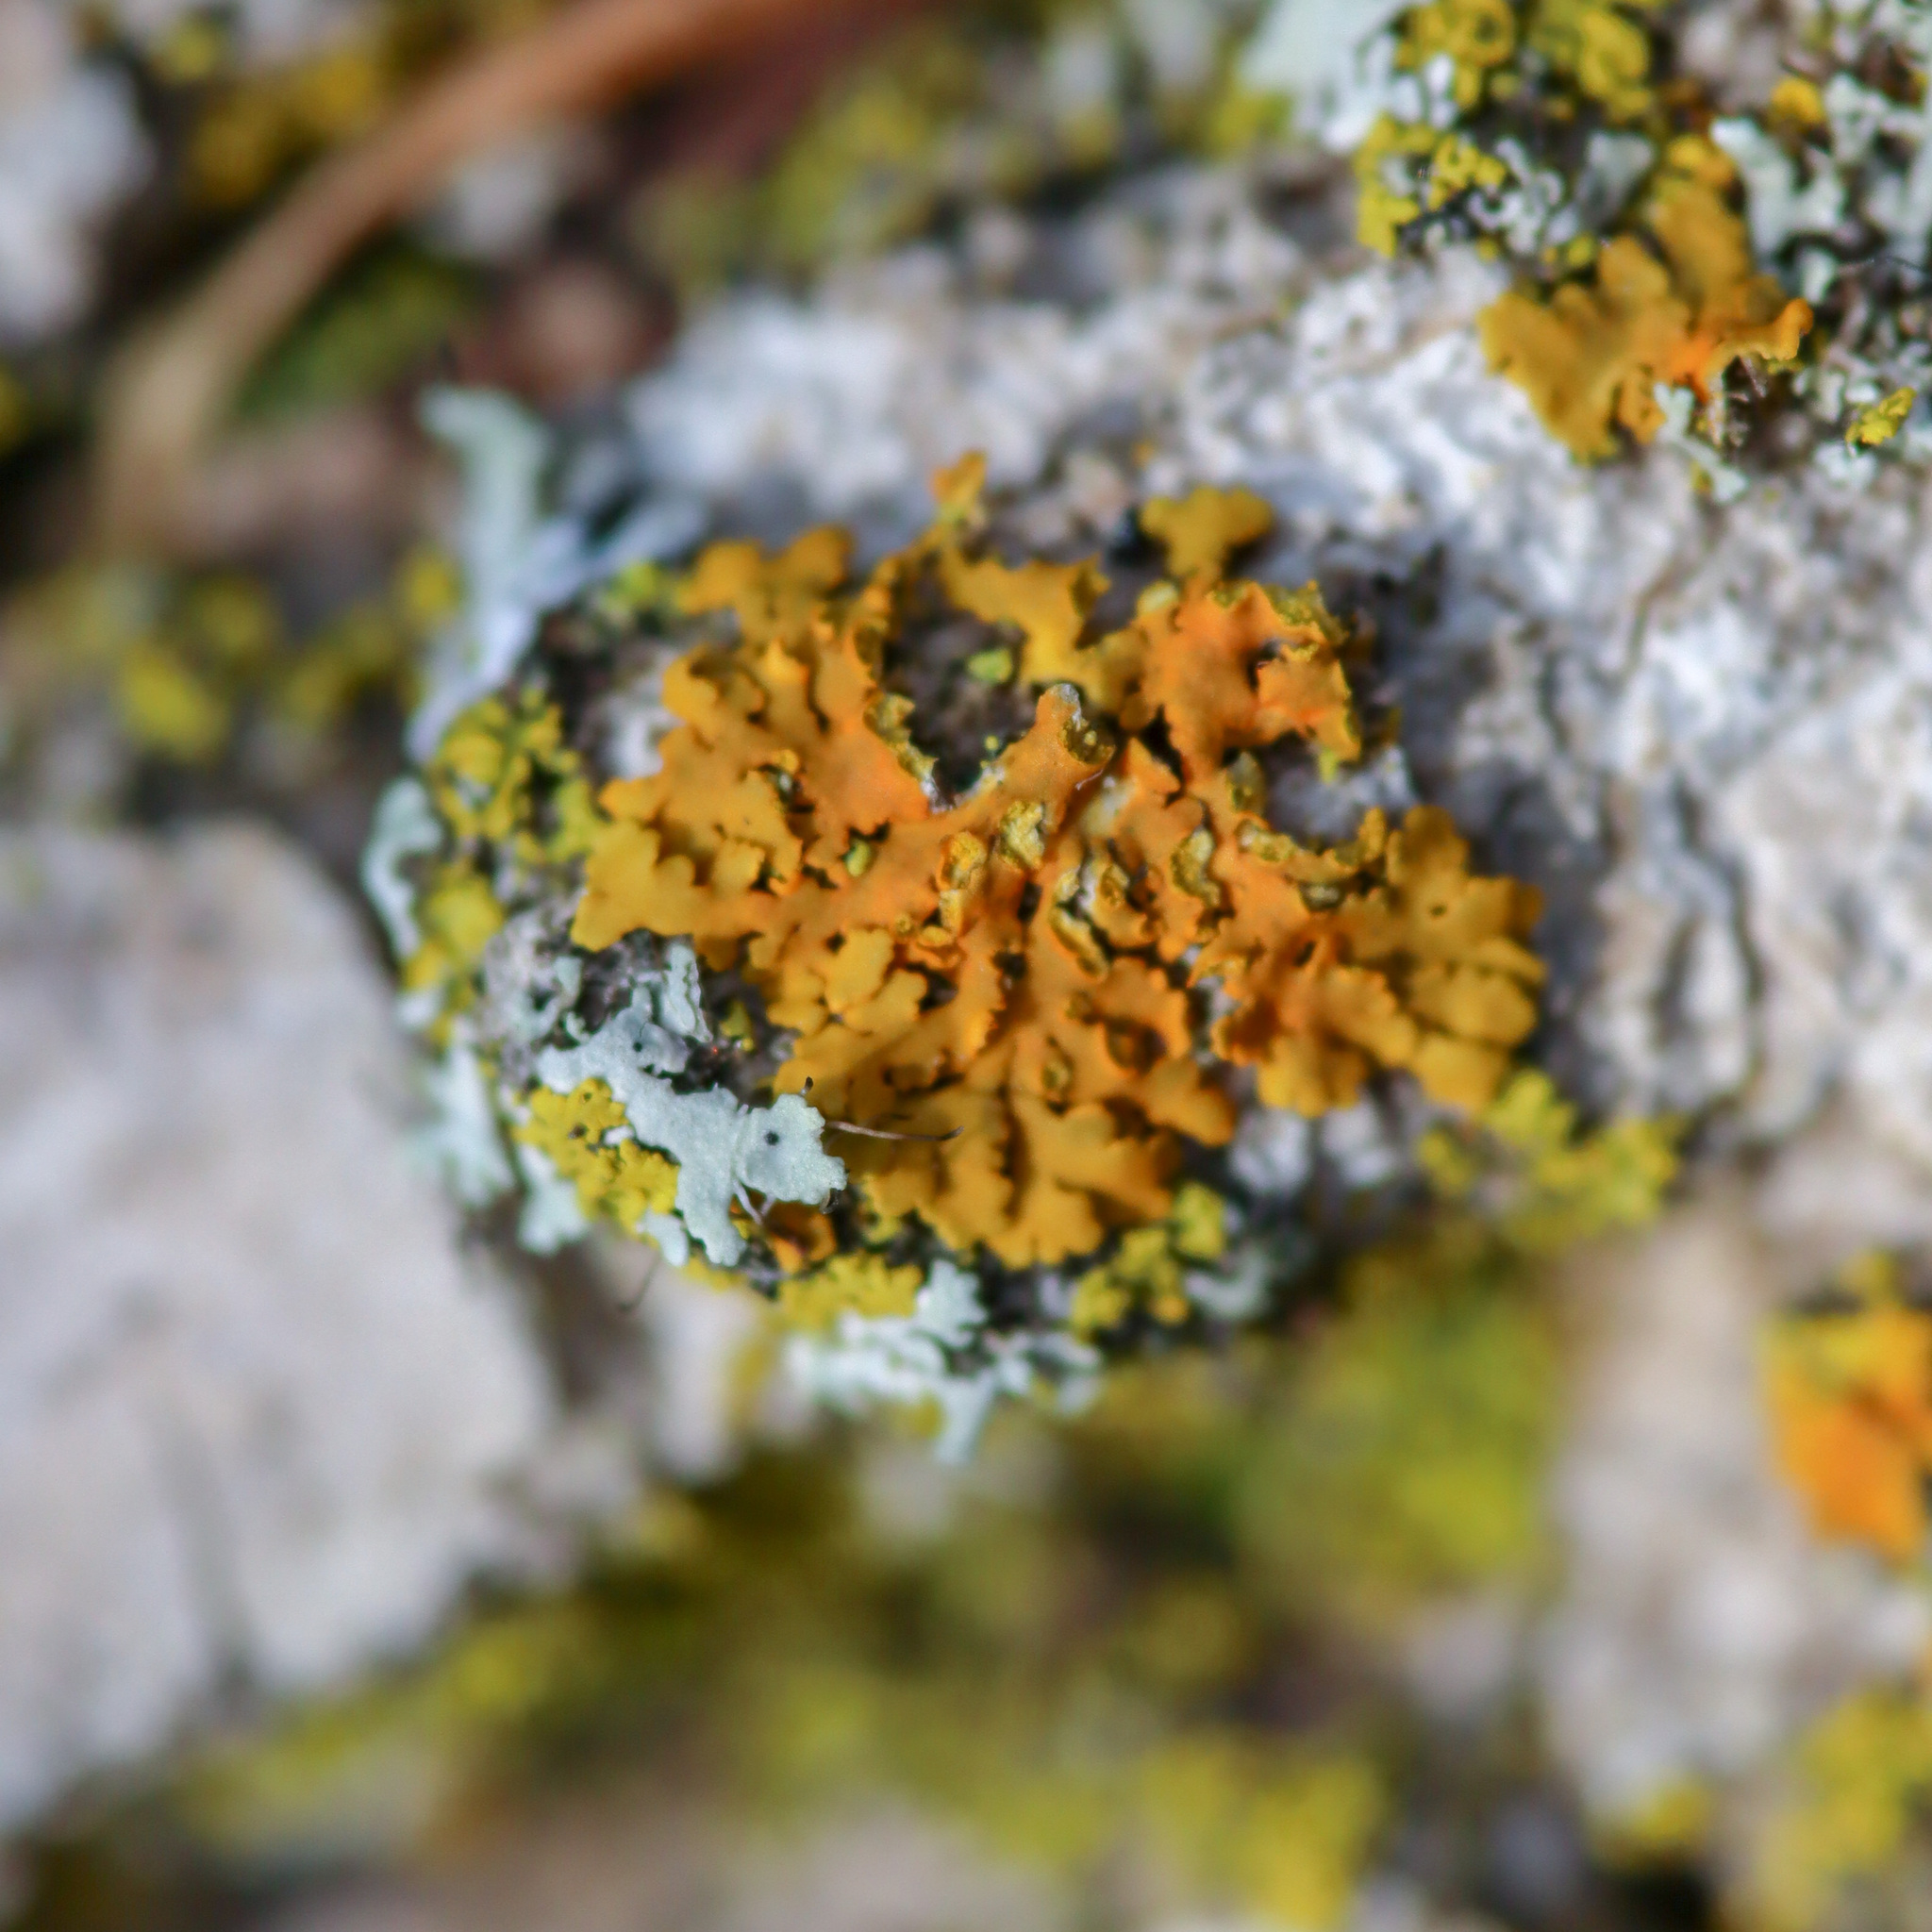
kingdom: Fungi
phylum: Ascomycota
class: Lecanoromycetes
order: Teloschistales
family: Teloschistaceae
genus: Oxneria
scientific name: Oxneria fallax
